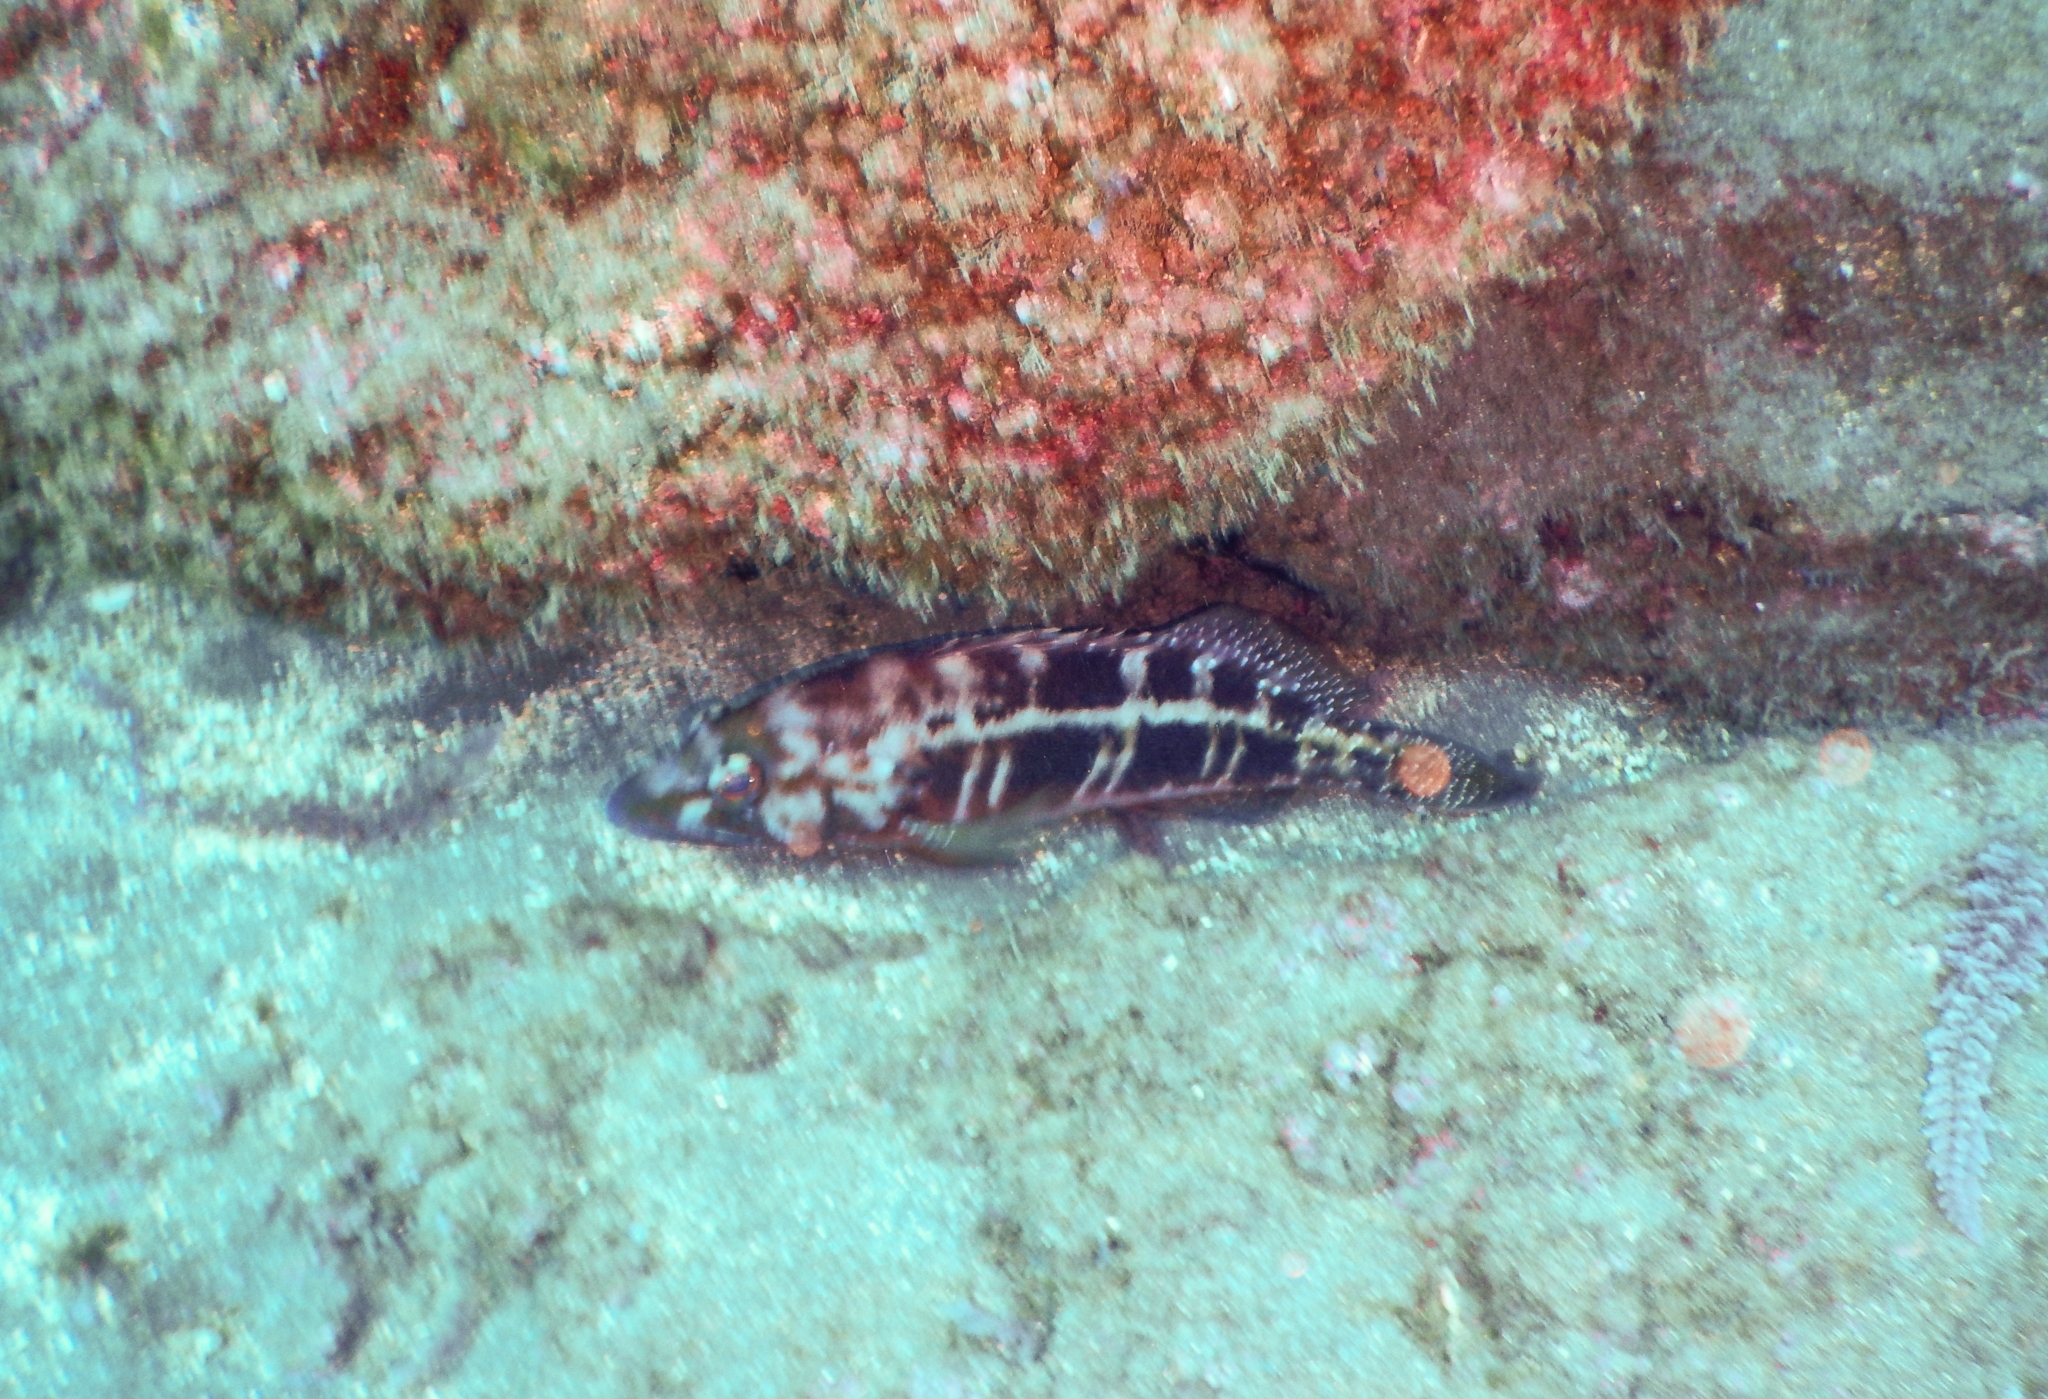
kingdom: Animalia
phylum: Chordata
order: Perciformes
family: Serranidae
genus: Serranus
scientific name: Serranus atricauda
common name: Blacktail comber
